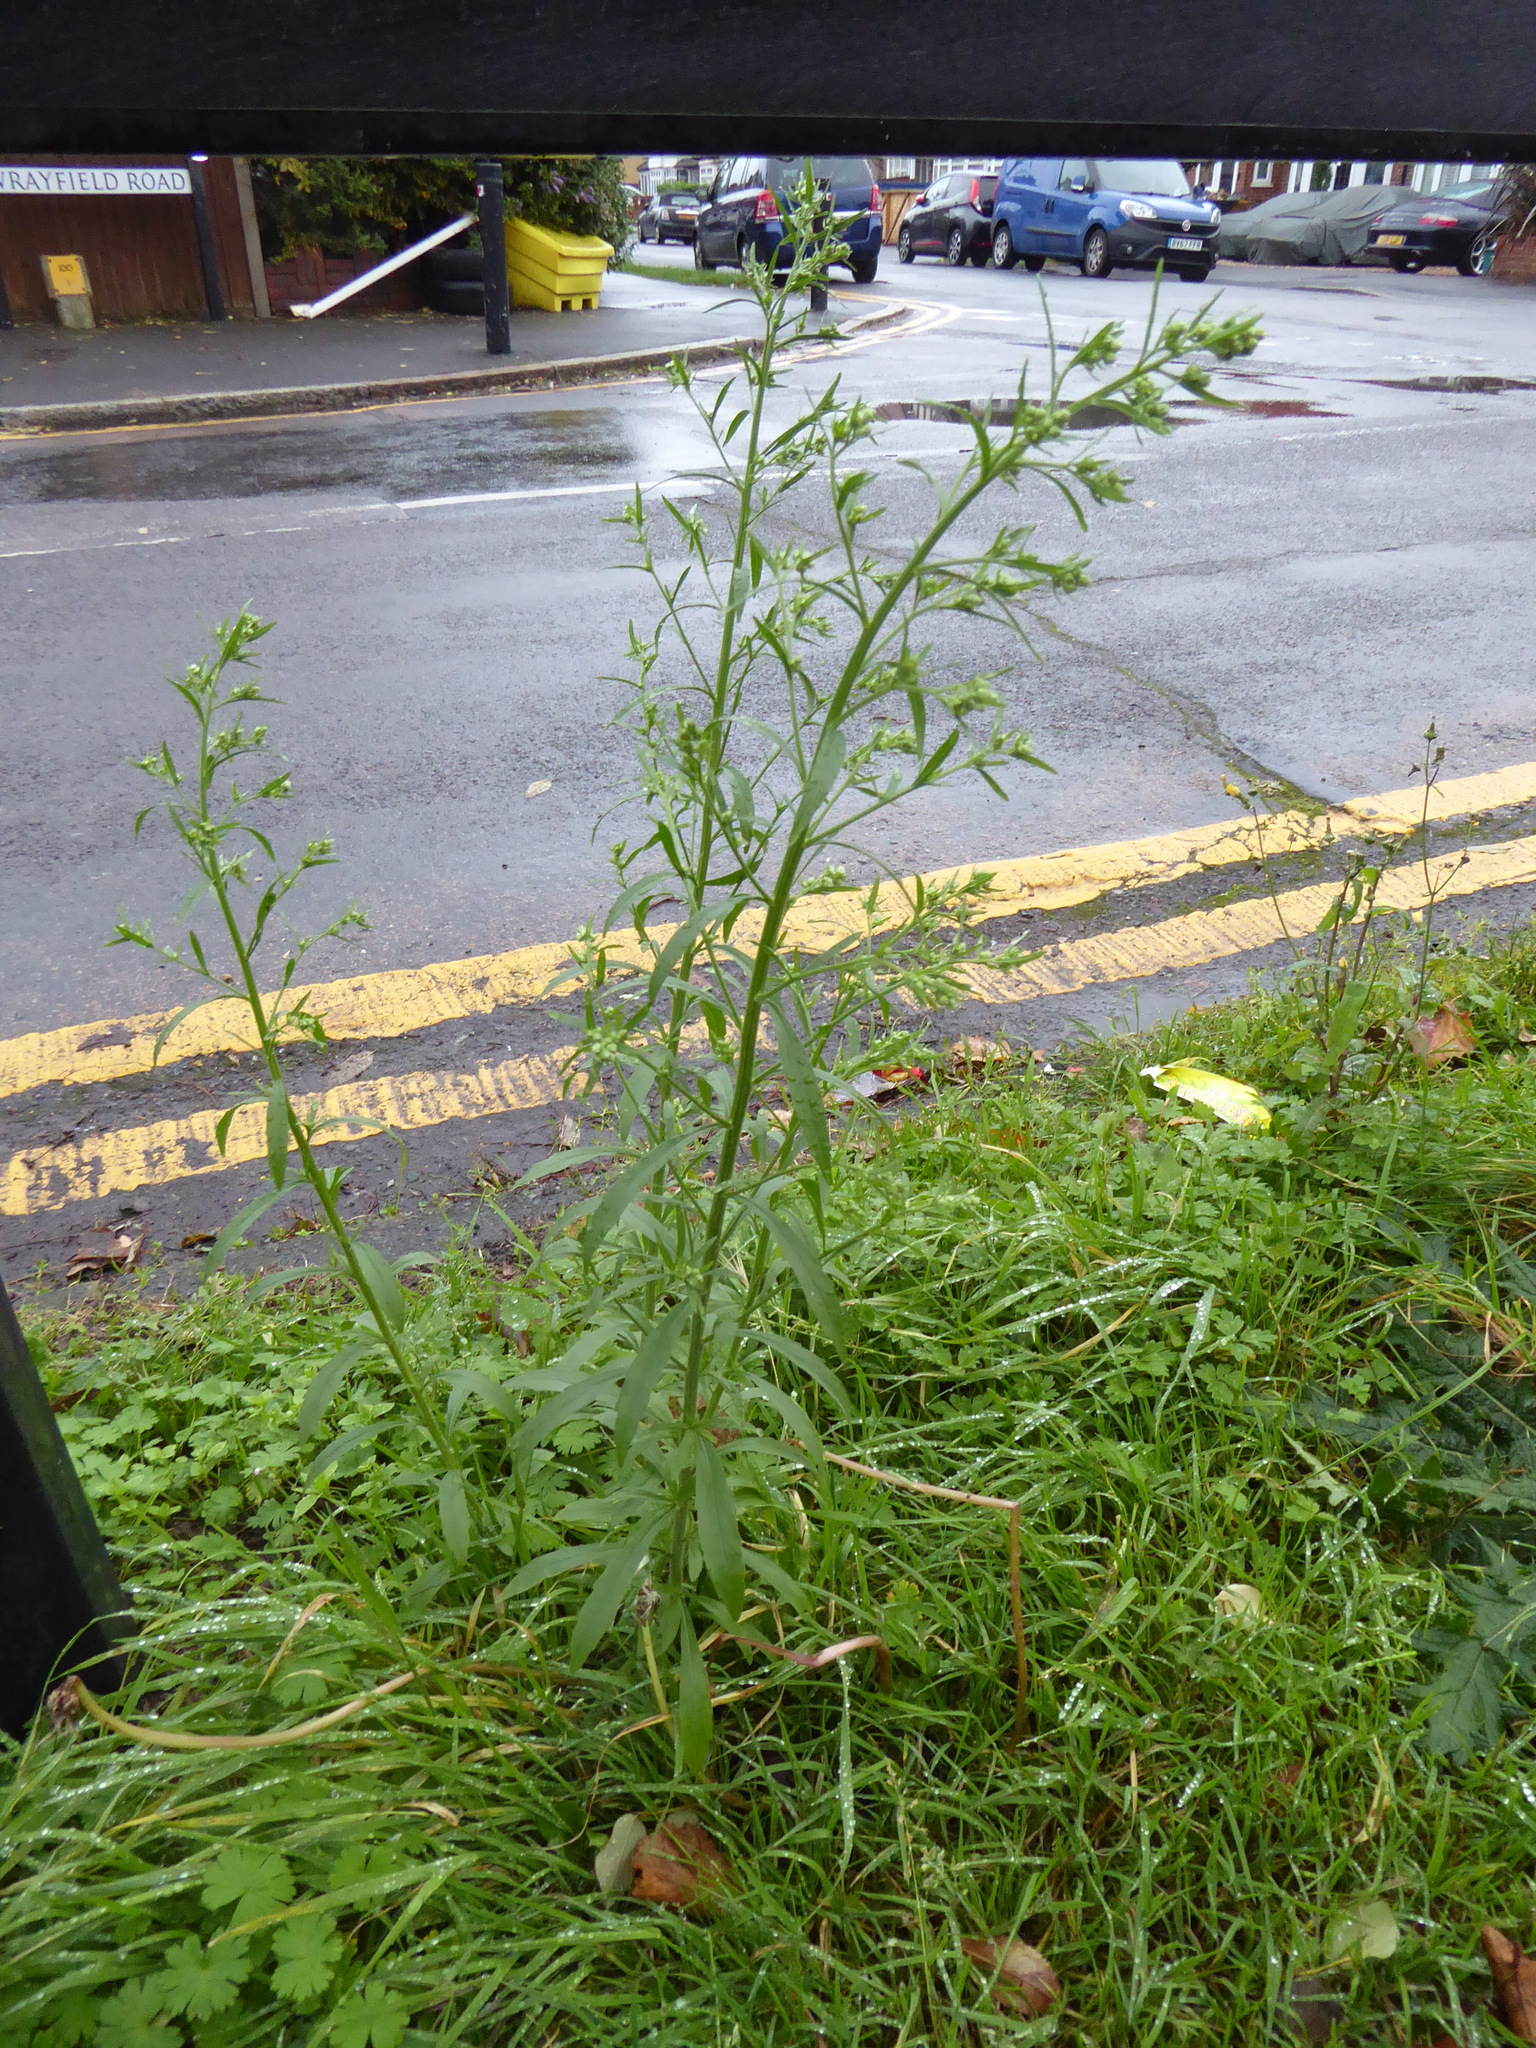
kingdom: Plantae
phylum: Tracheophyta
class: Magnoliopsida
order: Asterales
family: Asteraceae
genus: Erigeron
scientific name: Erigeron sumatrensis
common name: Daisy
